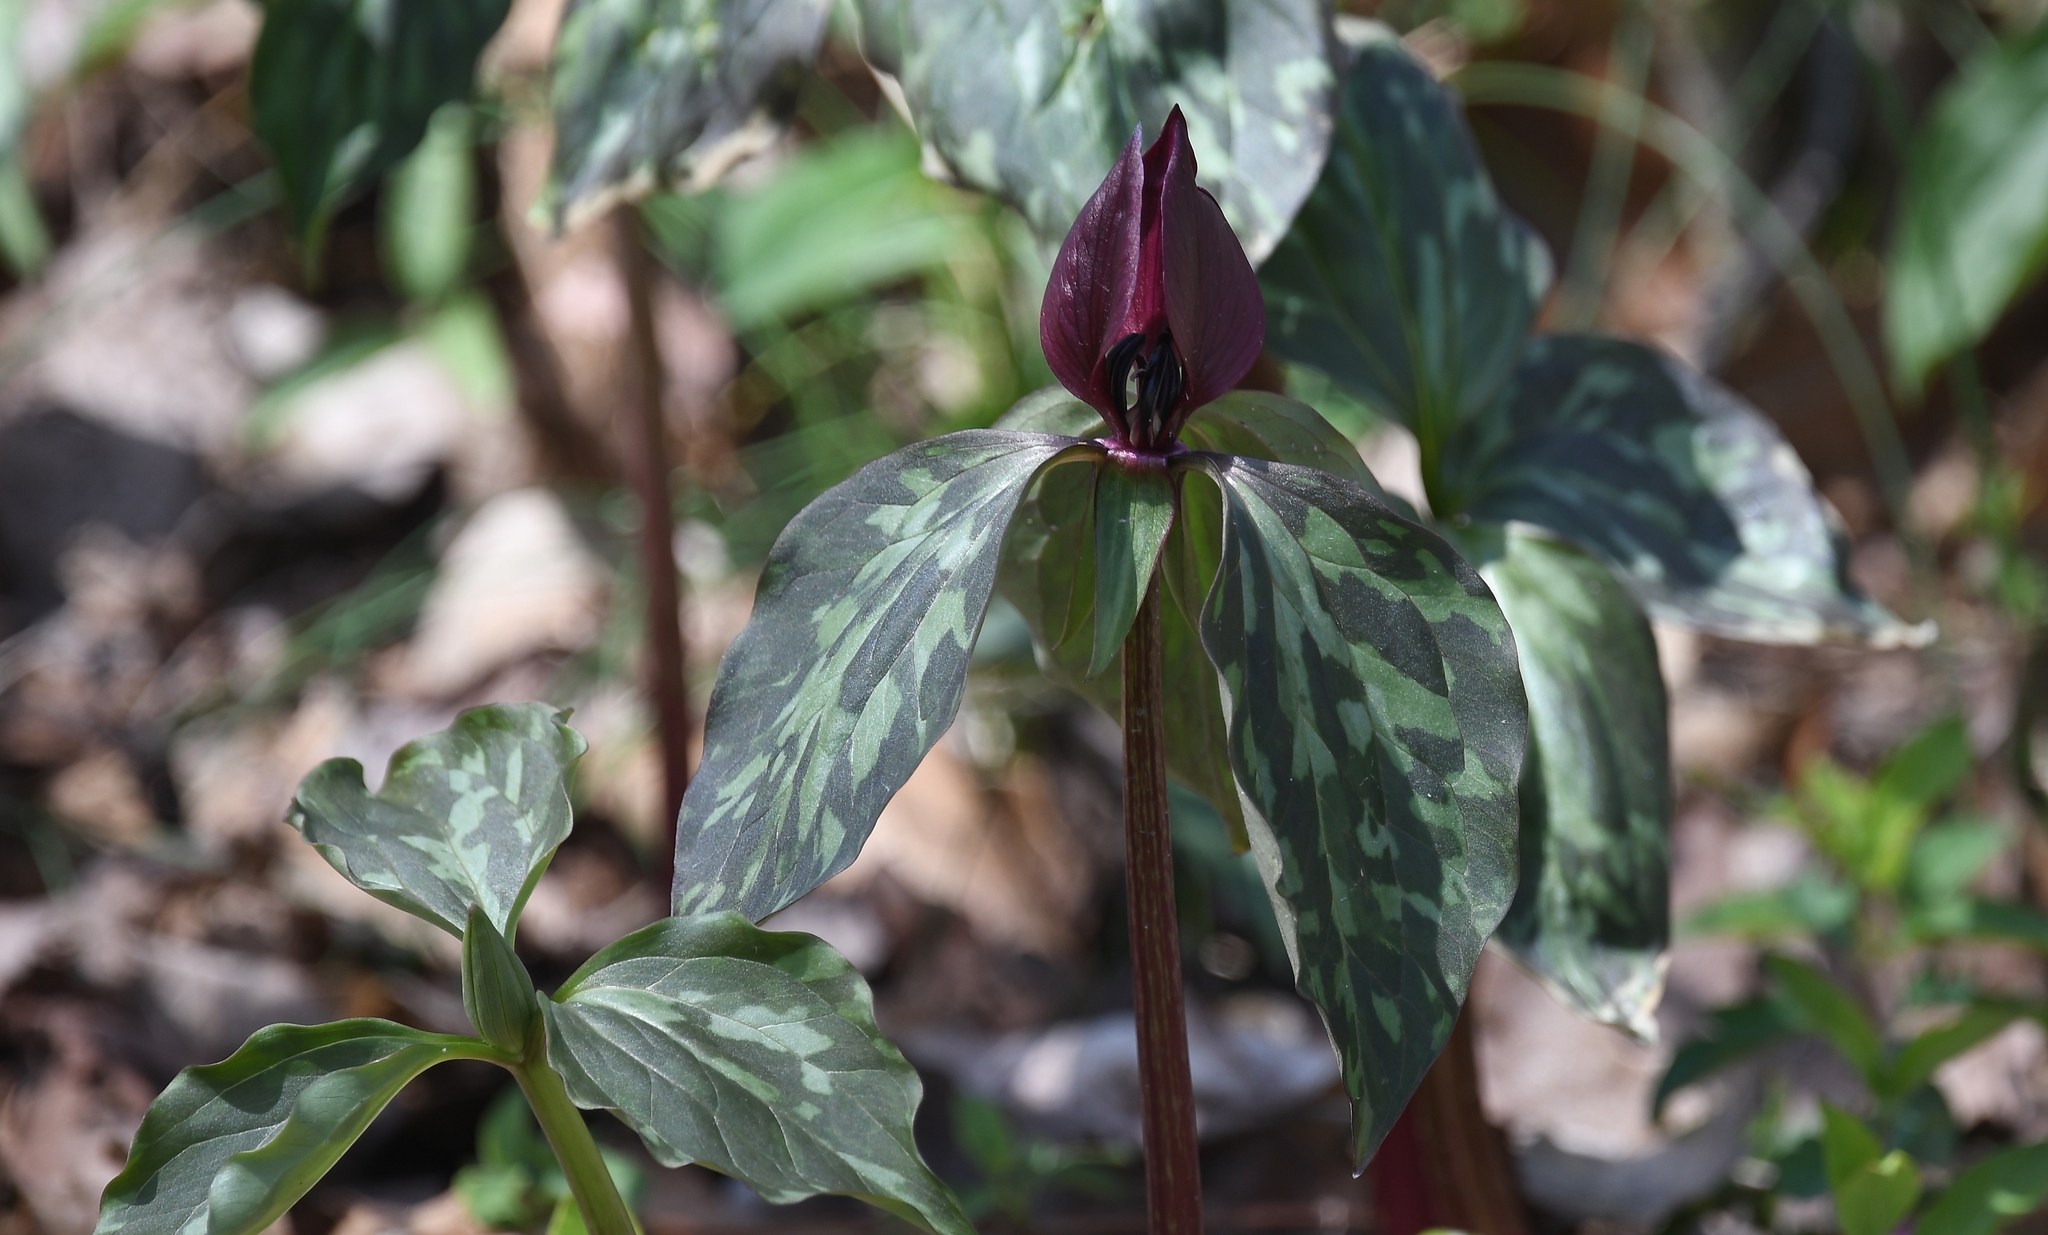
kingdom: Plantae
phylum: Tracheophyta
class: Liliopsida
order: Liliales
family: Melanthiaceae
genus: Trillium
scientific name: Trillium recurvatum
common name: Bloody butcher
